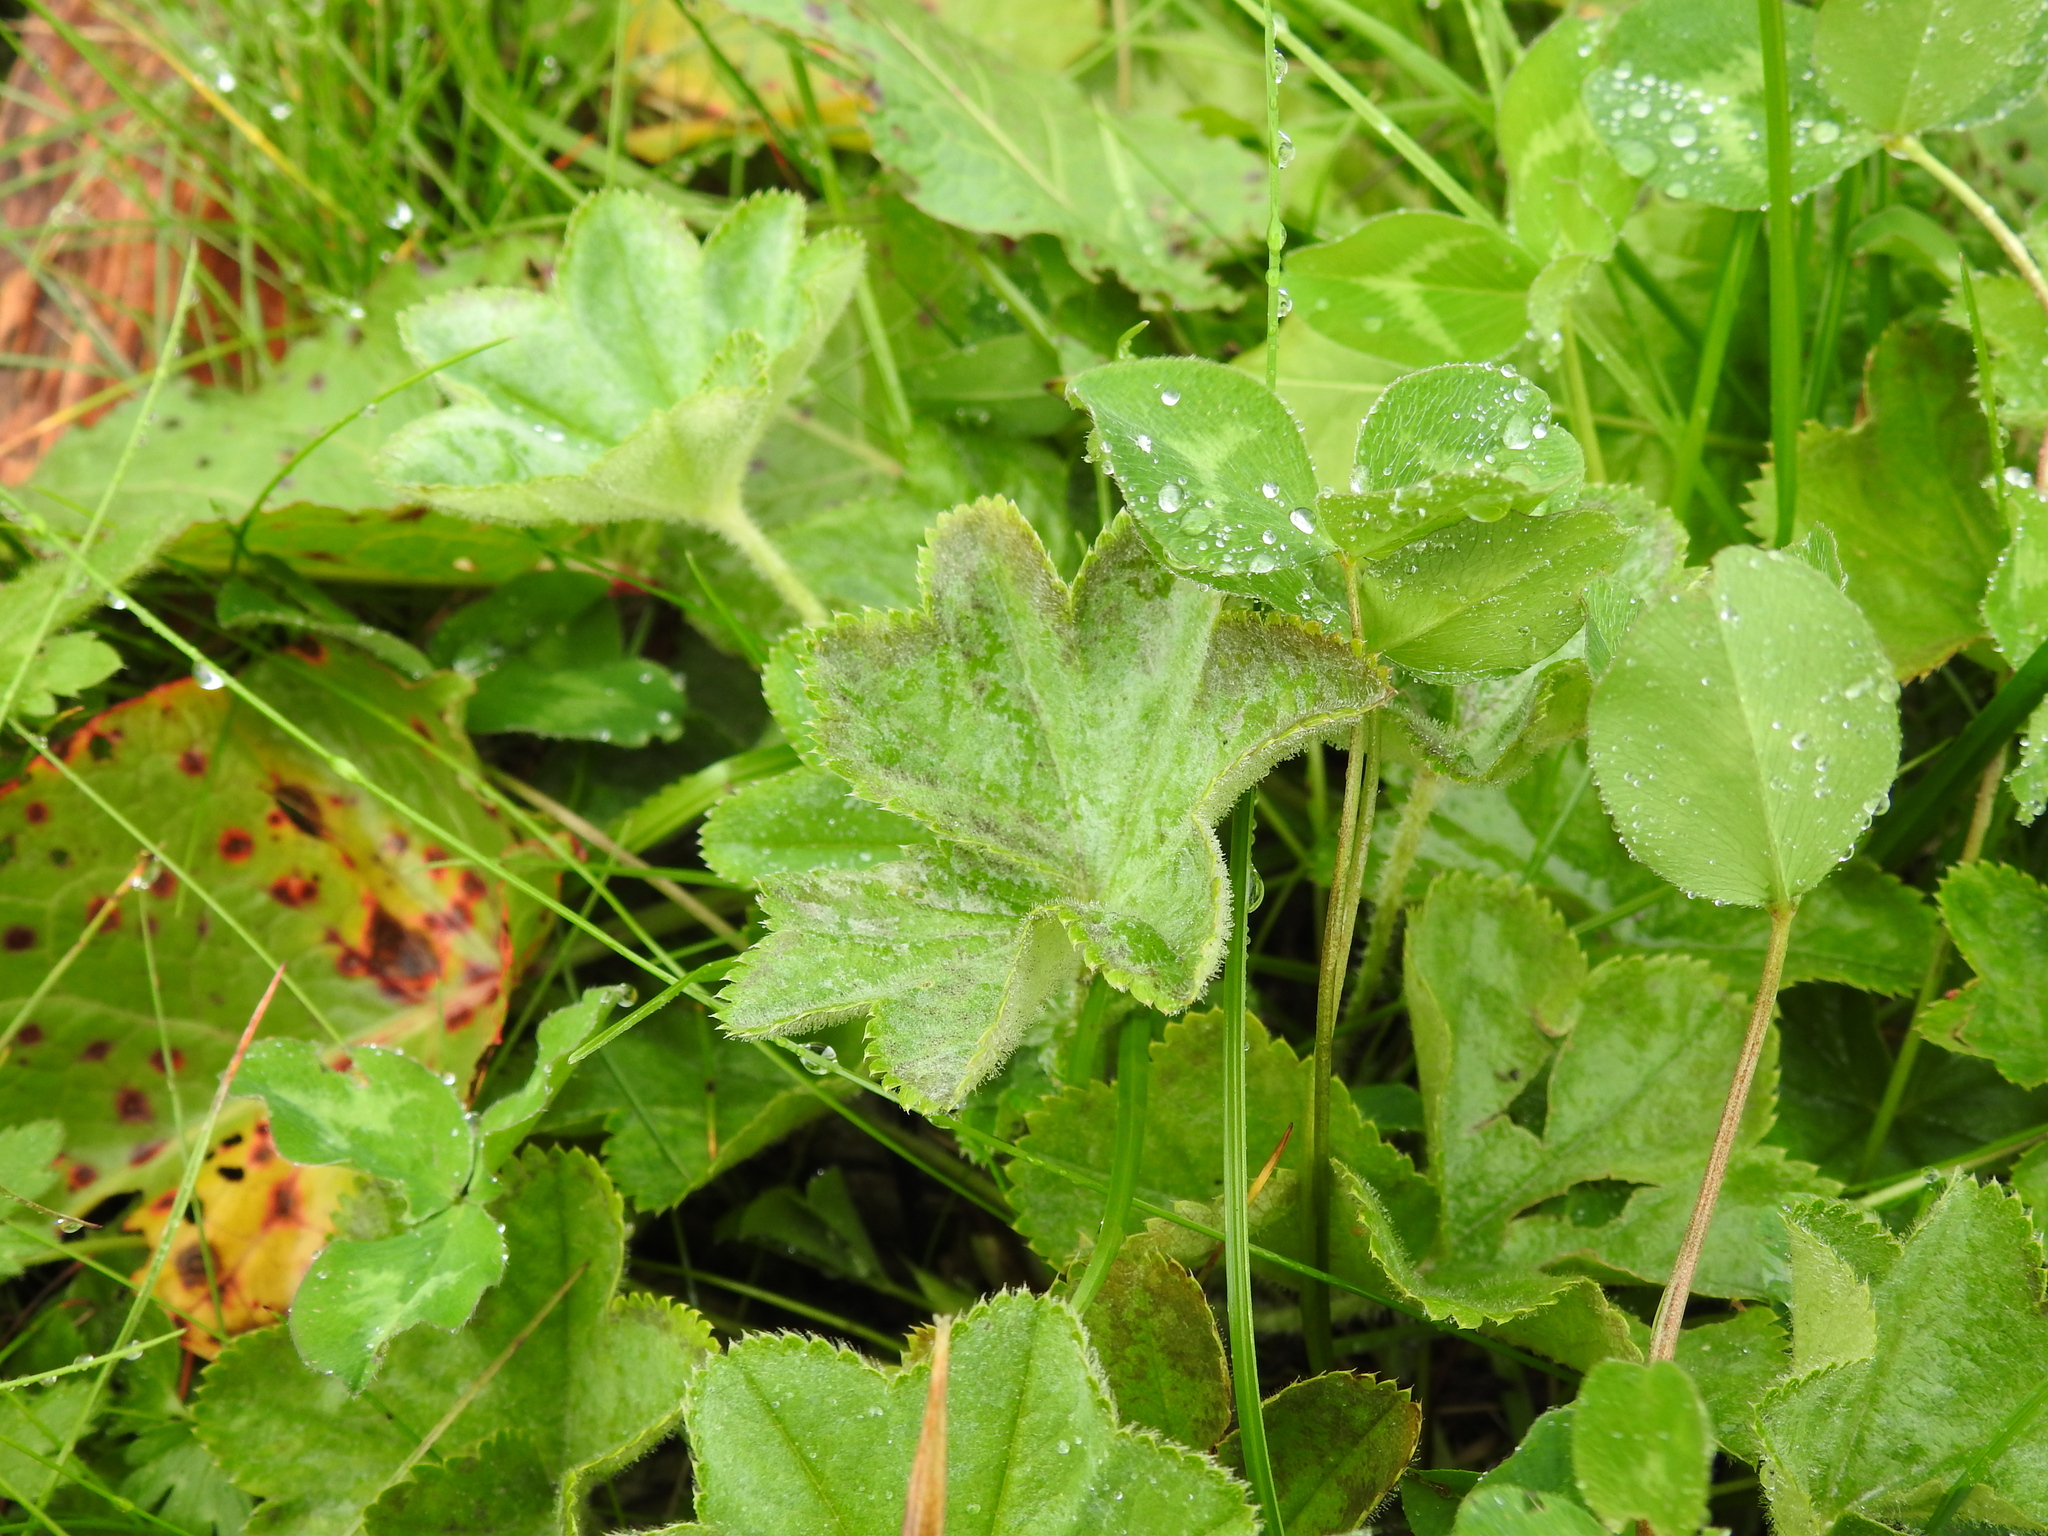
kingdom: Fungi
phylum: Ascomycota
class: Leotiomycetes
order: Helotiales
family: Erysiphaceae
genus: Podosphaera
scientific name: Podosphaera aphanis
